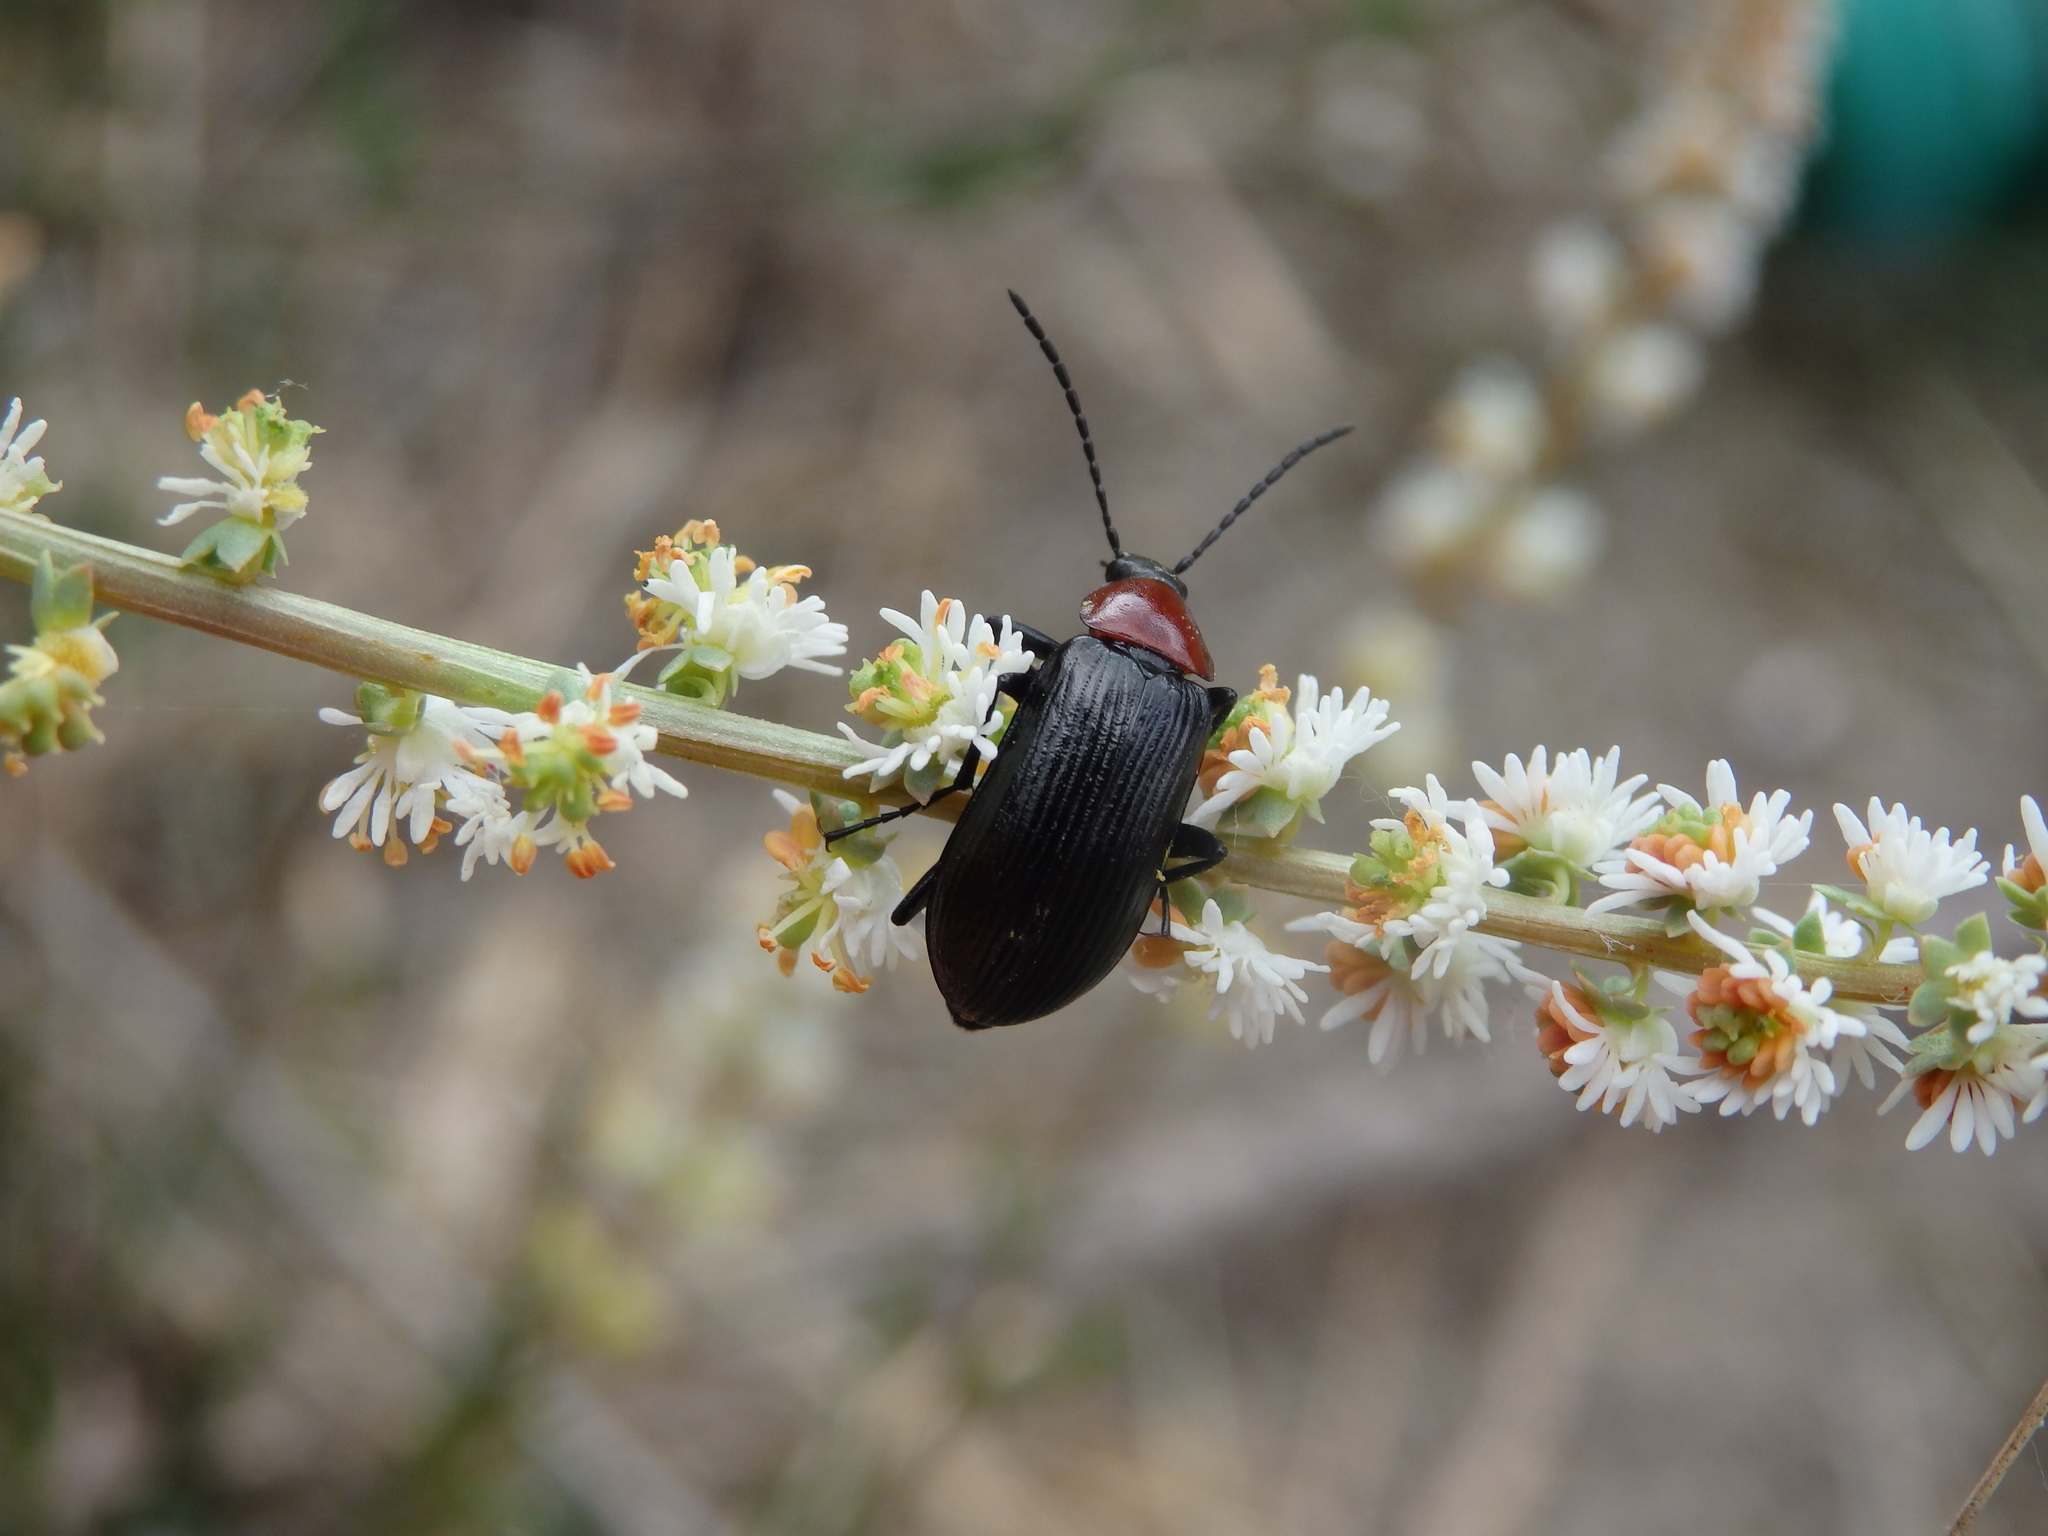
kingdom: Animalia
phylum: Arthropoda
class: Insecta
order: Coleoptera
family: Tenebrionidae
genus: Heliotaurus
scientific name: Heliotaurus ruficollis
